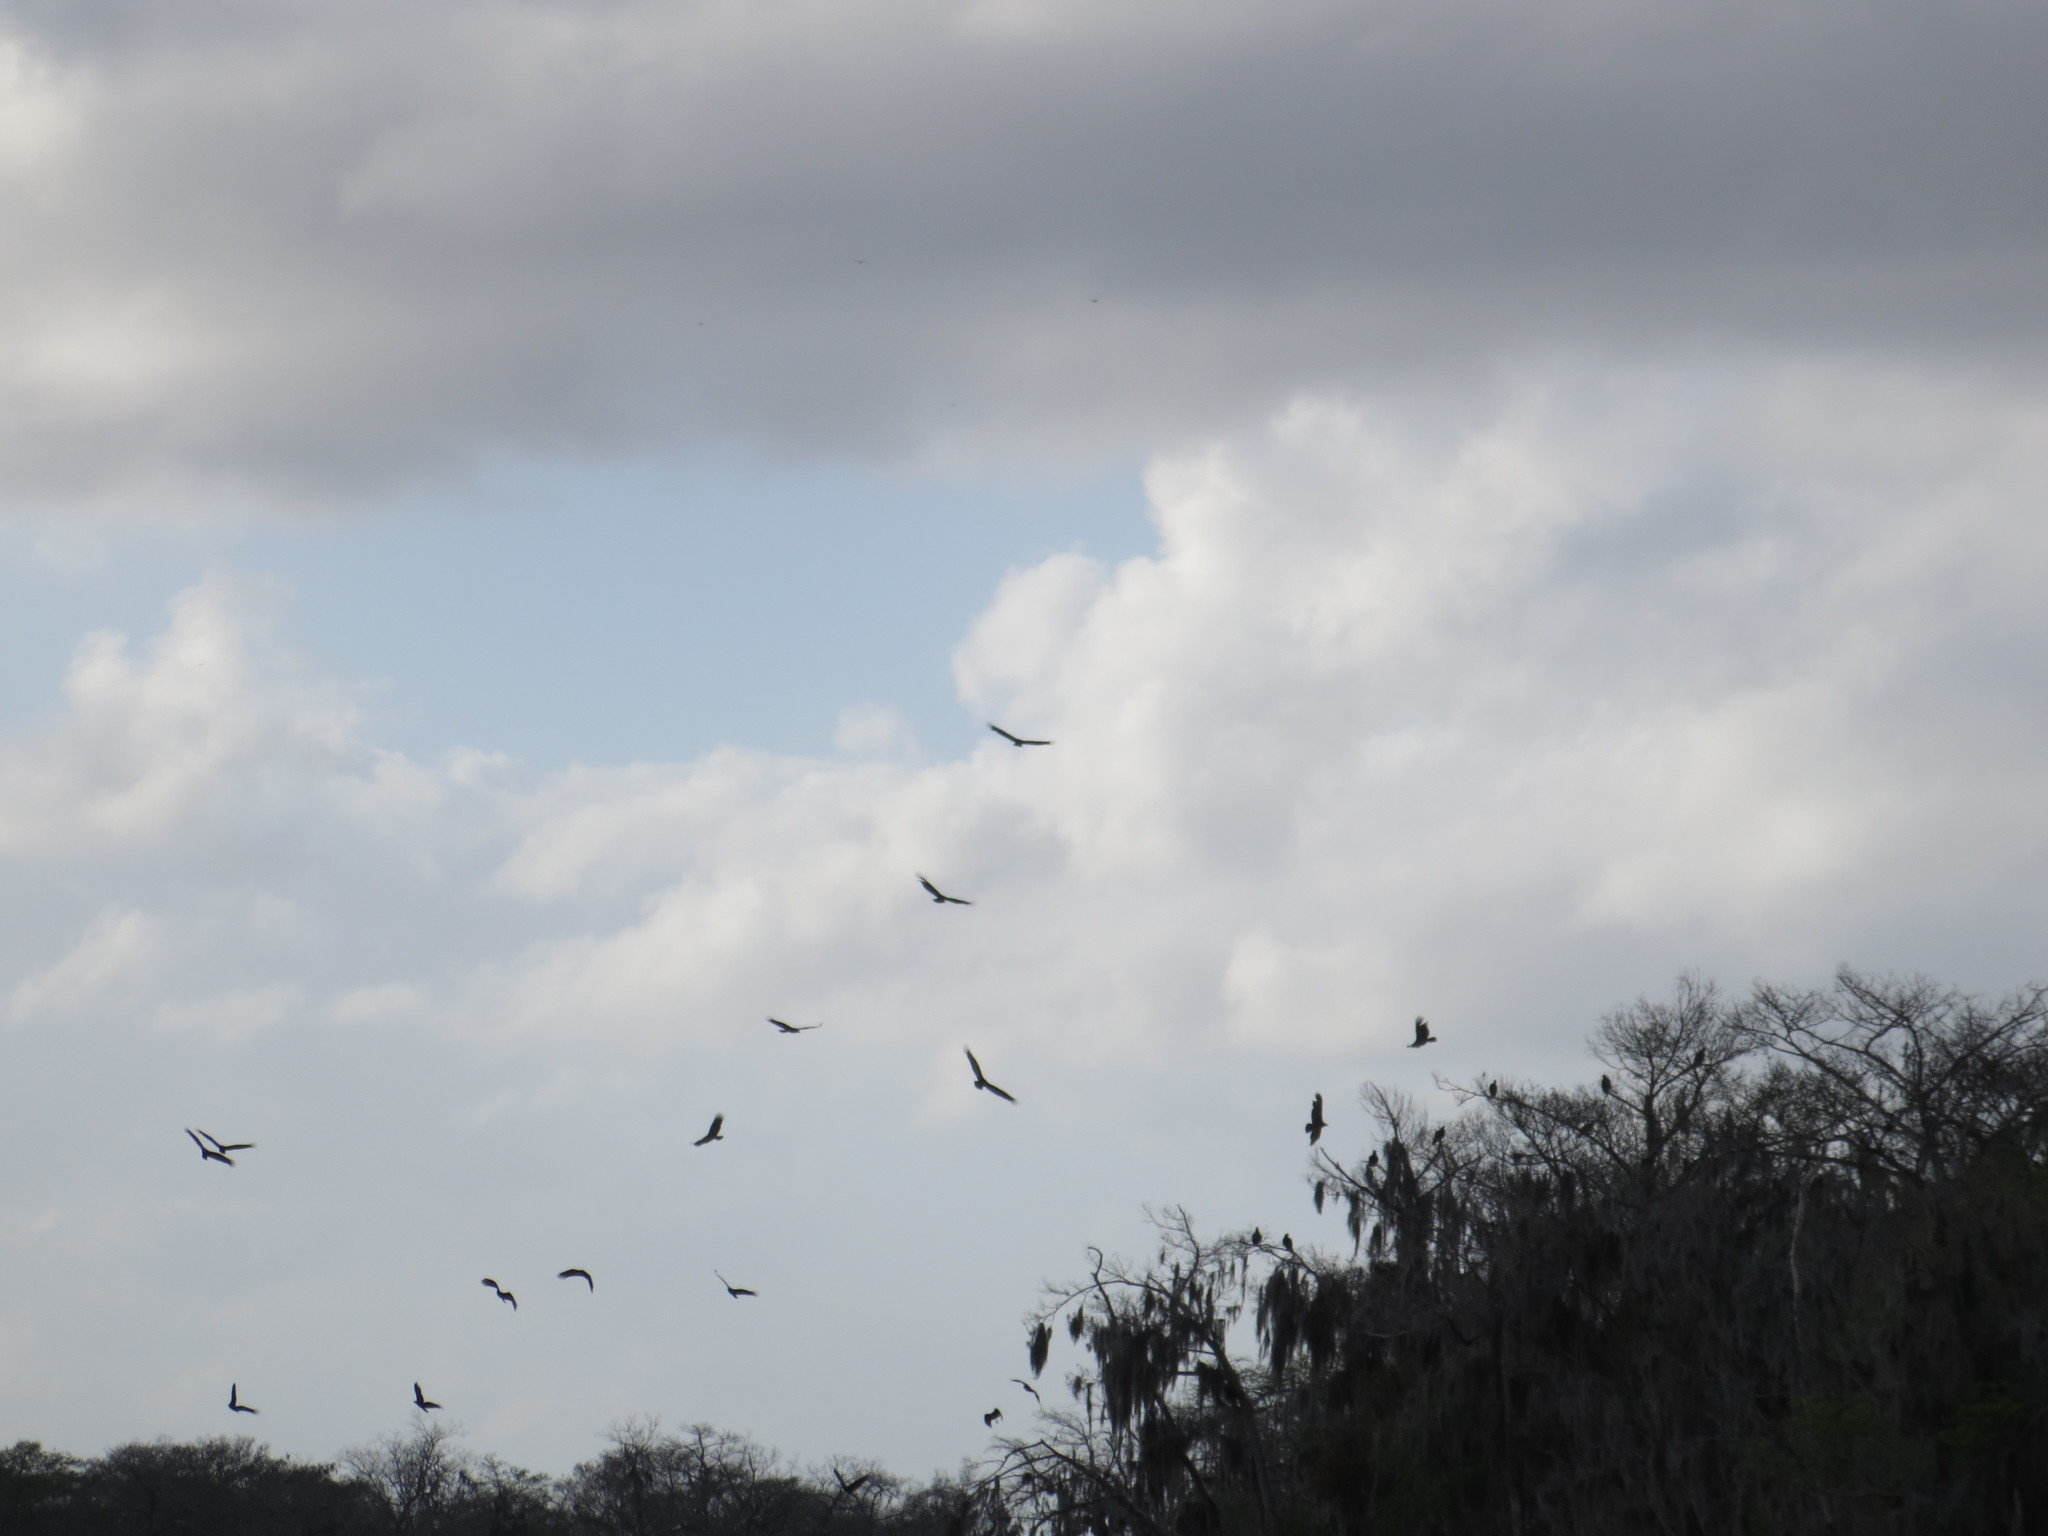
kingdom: Animalia
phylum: Chordata
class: Aves
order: Accipitriformes
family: Cathartidae
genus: Cathartes
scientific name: Cathartes aura
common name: Turkey vulture
